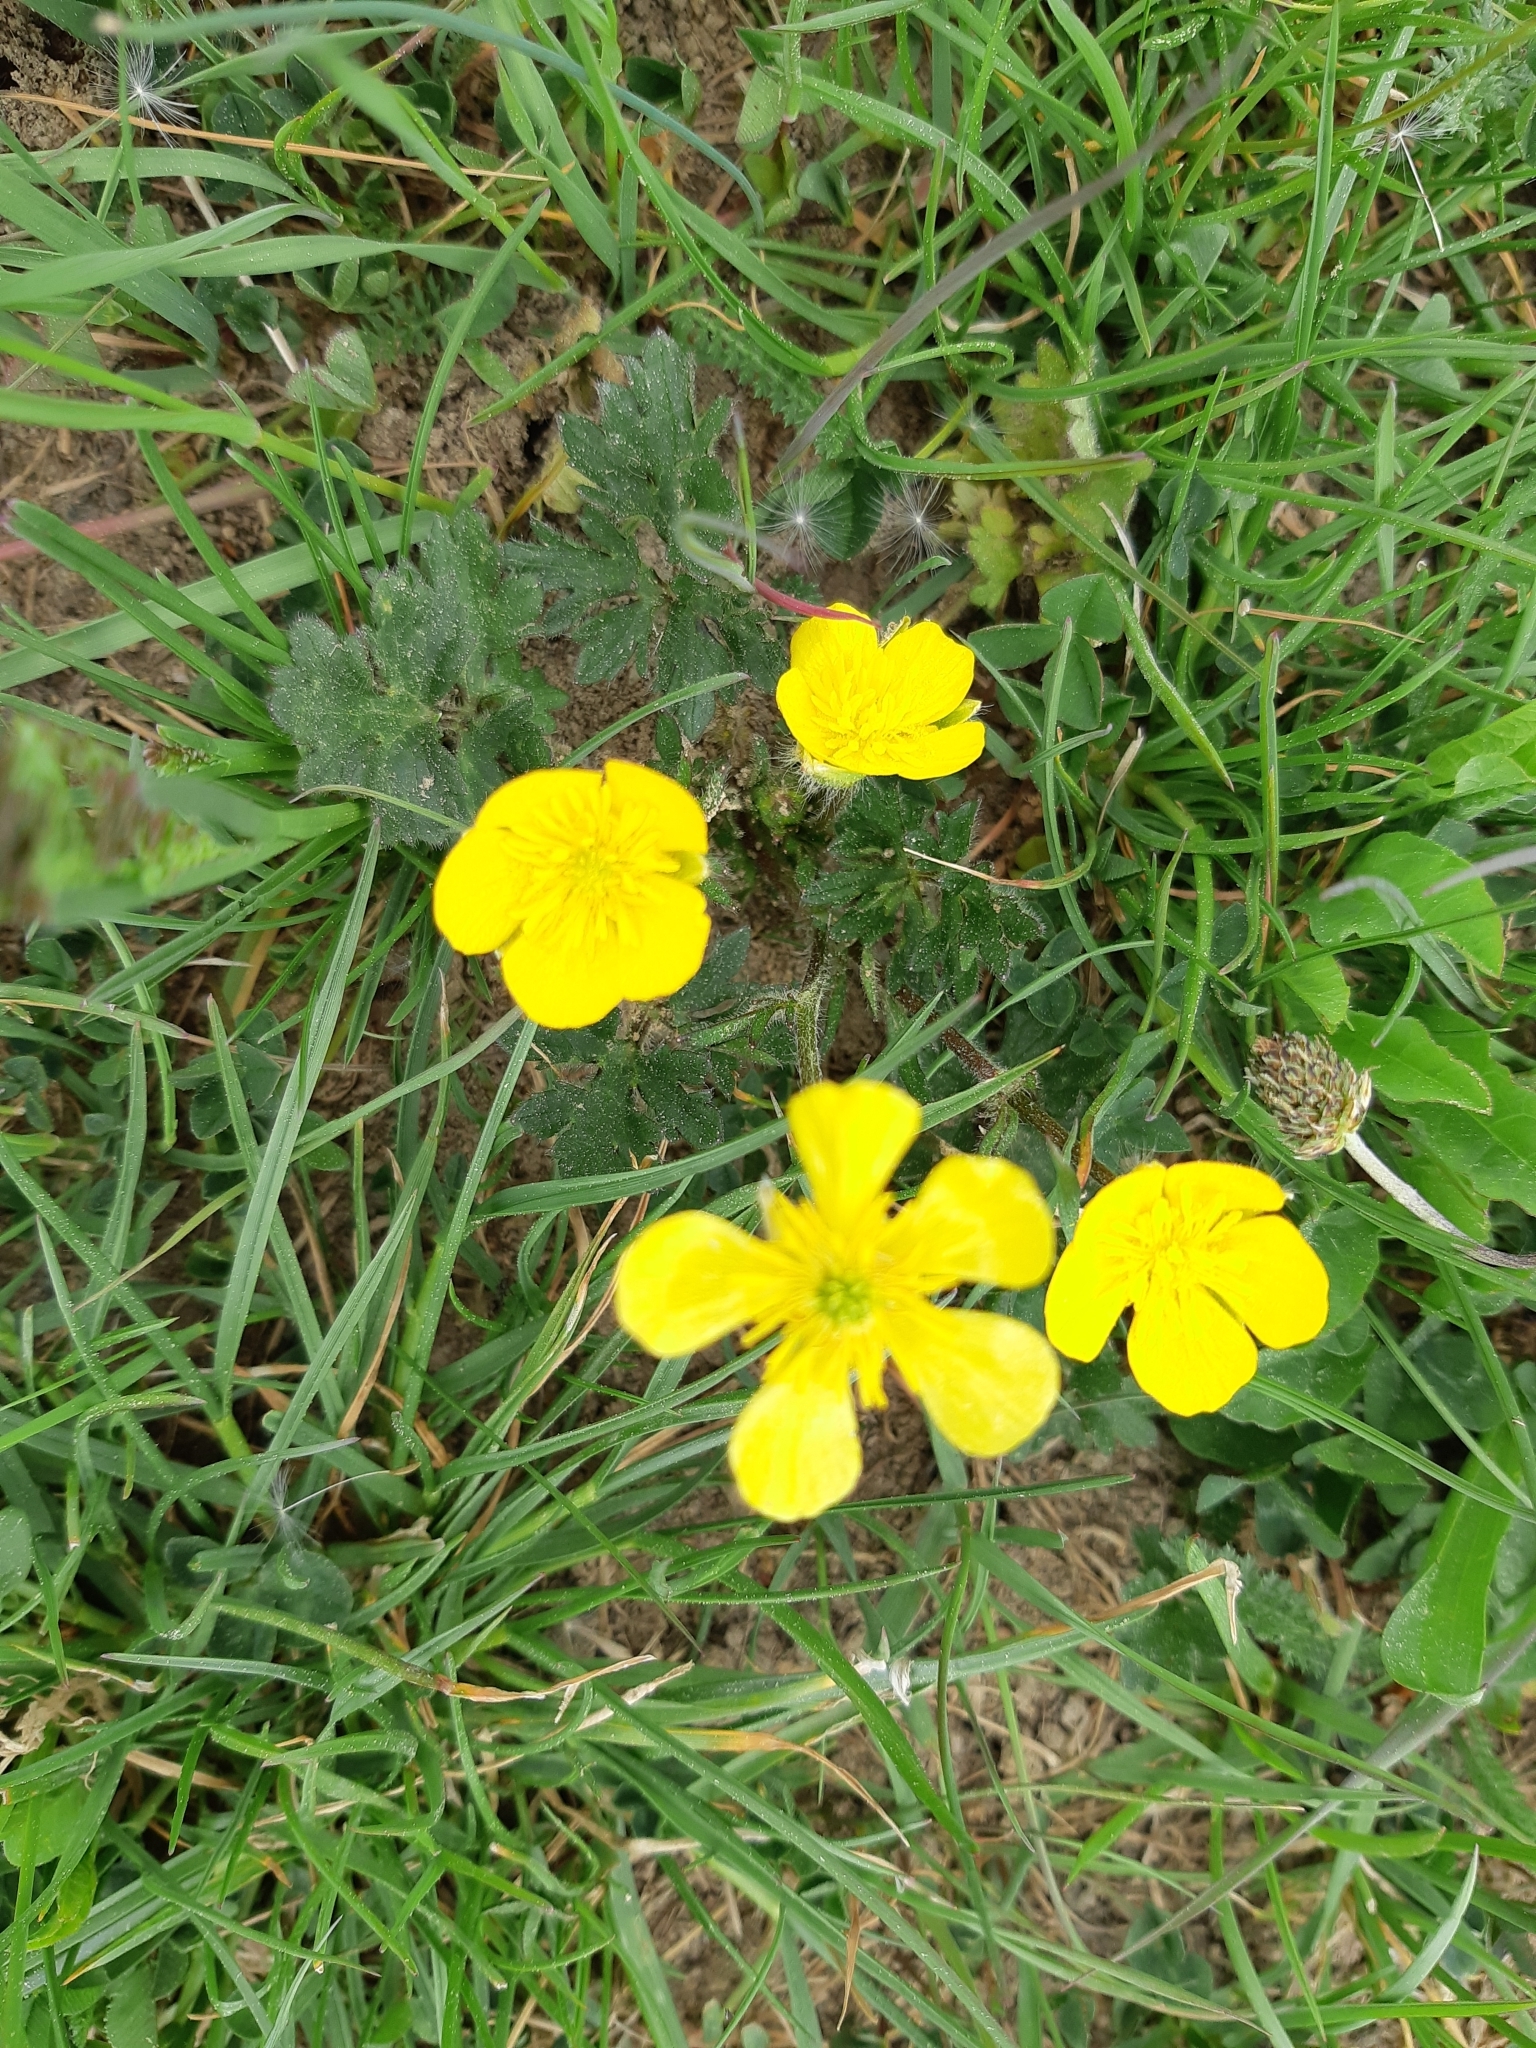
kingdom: Plantae
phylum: Tracheophyta
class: Magnoliopsida
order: Ranunculales
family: Ranunculaceae
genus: Ranunculus
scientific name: Ranunculus bulbosus
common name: Bulbous buttercup
